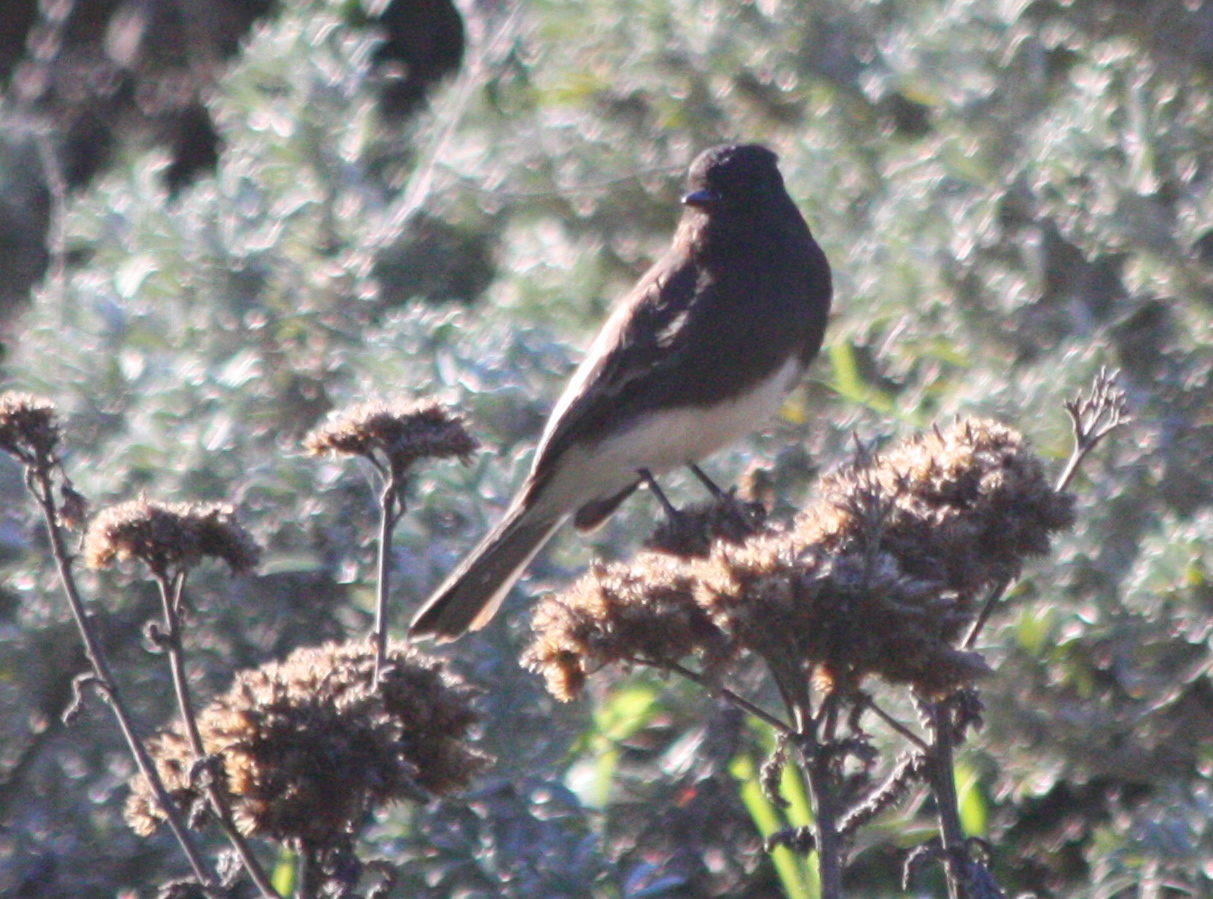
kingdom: Animalia
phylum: Chordata
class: Aves
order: Passeriformes
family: Tyrannidae
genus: Sayornis
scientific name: Sayornis nigricans
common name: Black phoebe
